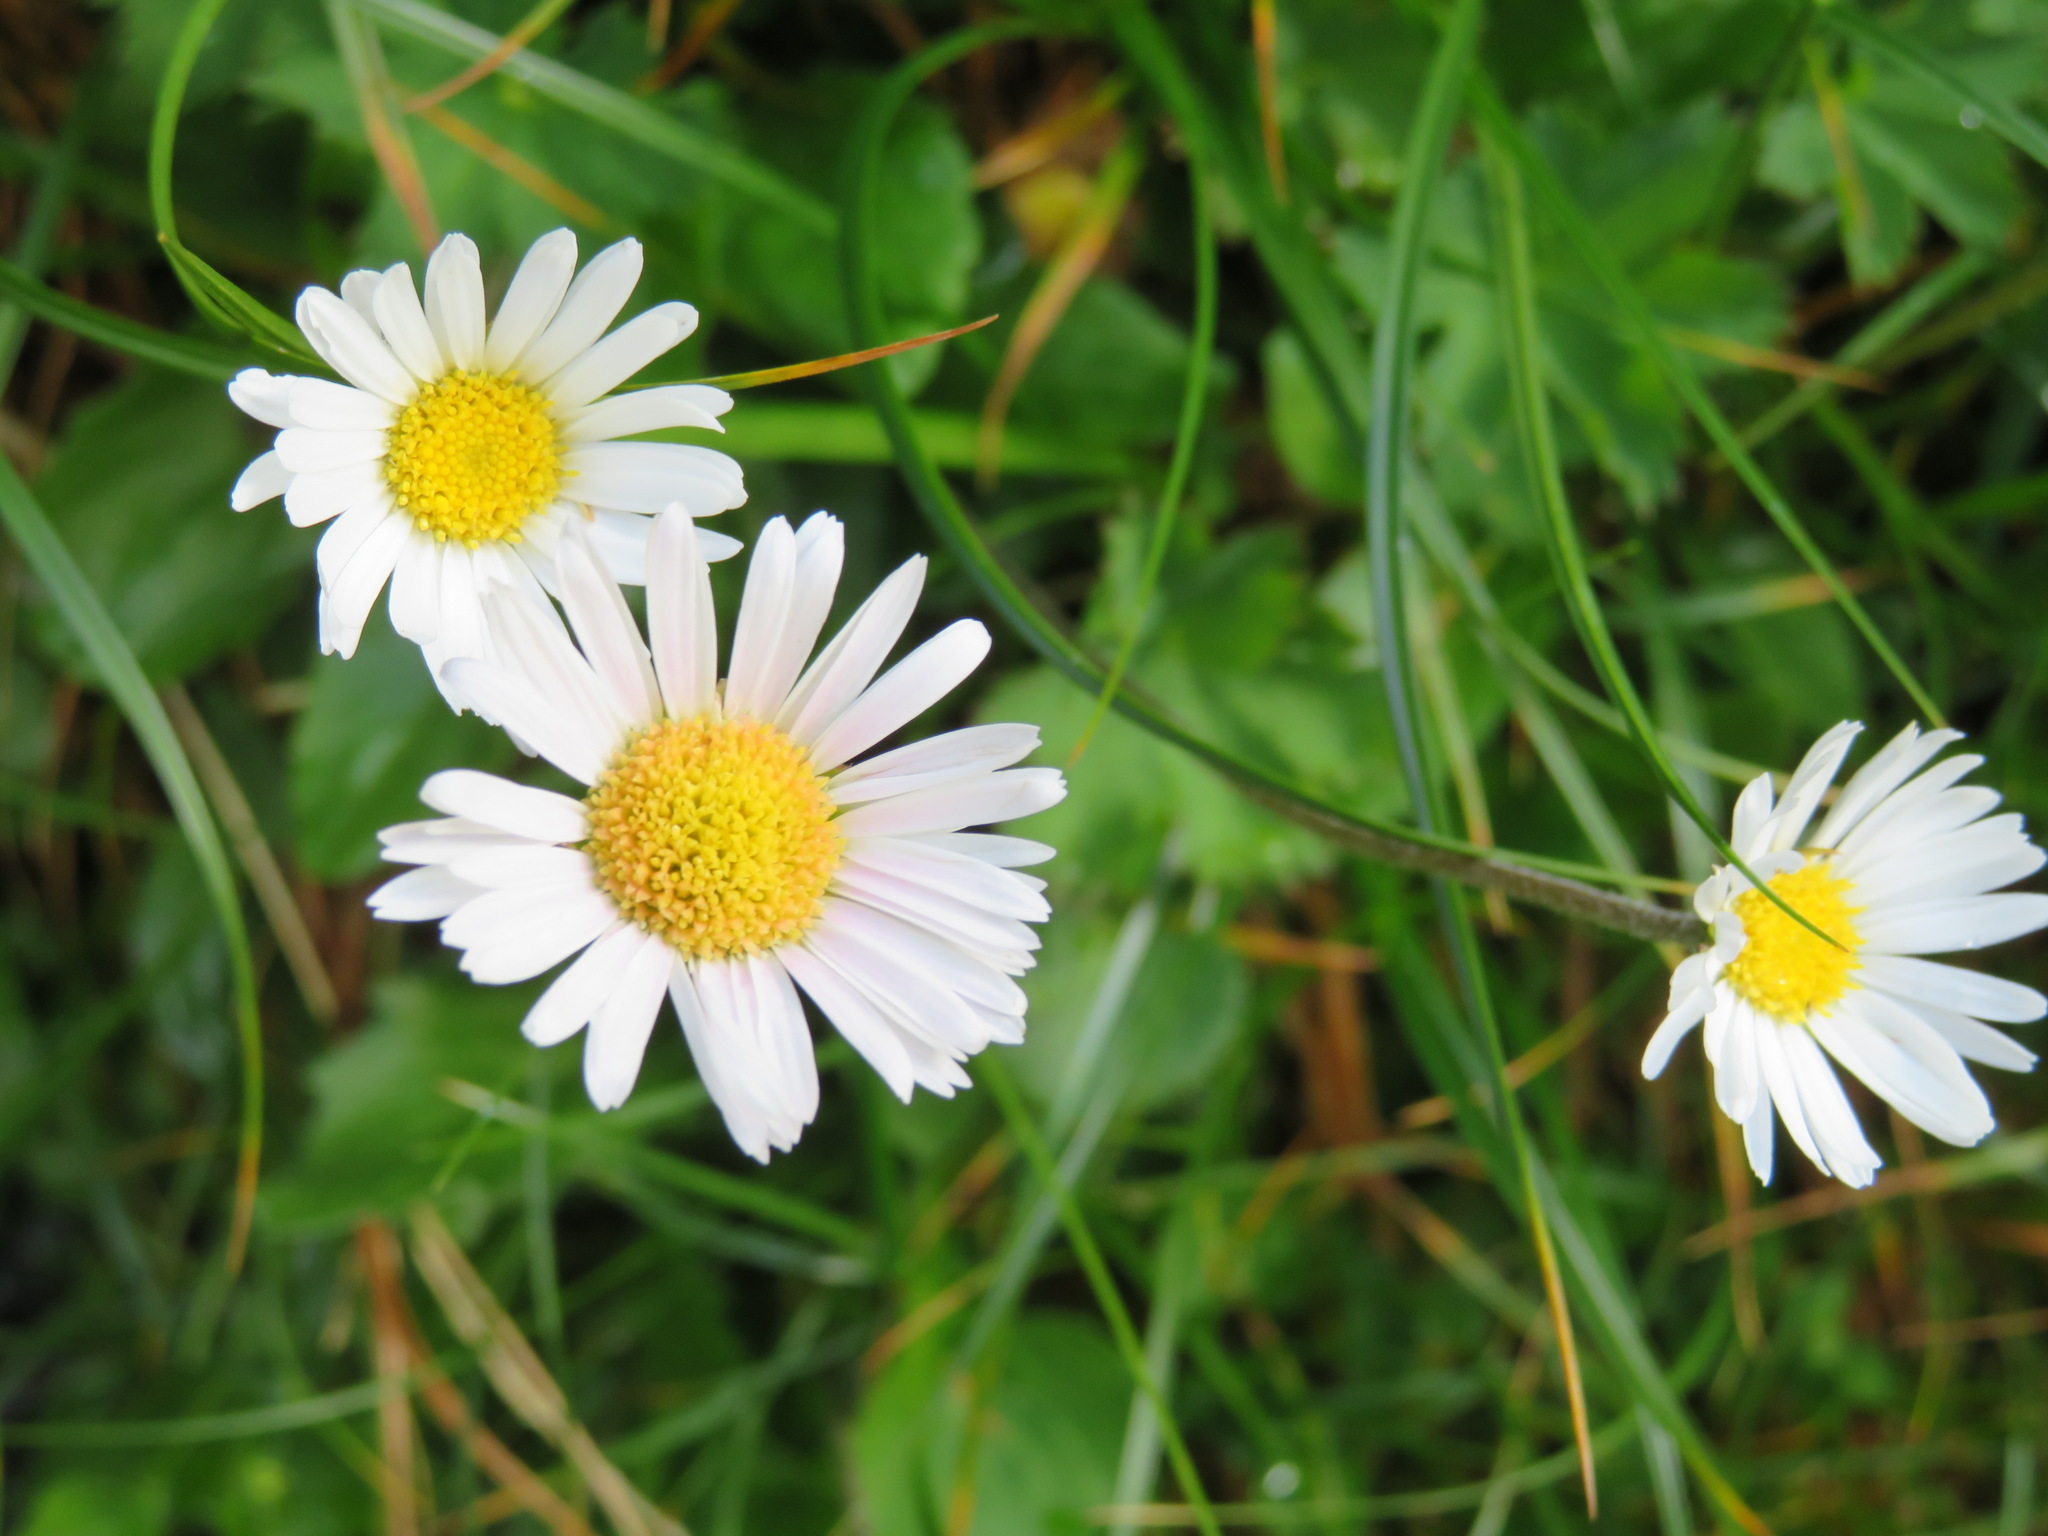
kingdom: Plantae
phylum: Tracheophyta
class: Magnoliopsida
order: Asterales
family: Asteraceae
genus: Bellis
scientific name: Bellis perennis
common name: Lawndaisy
